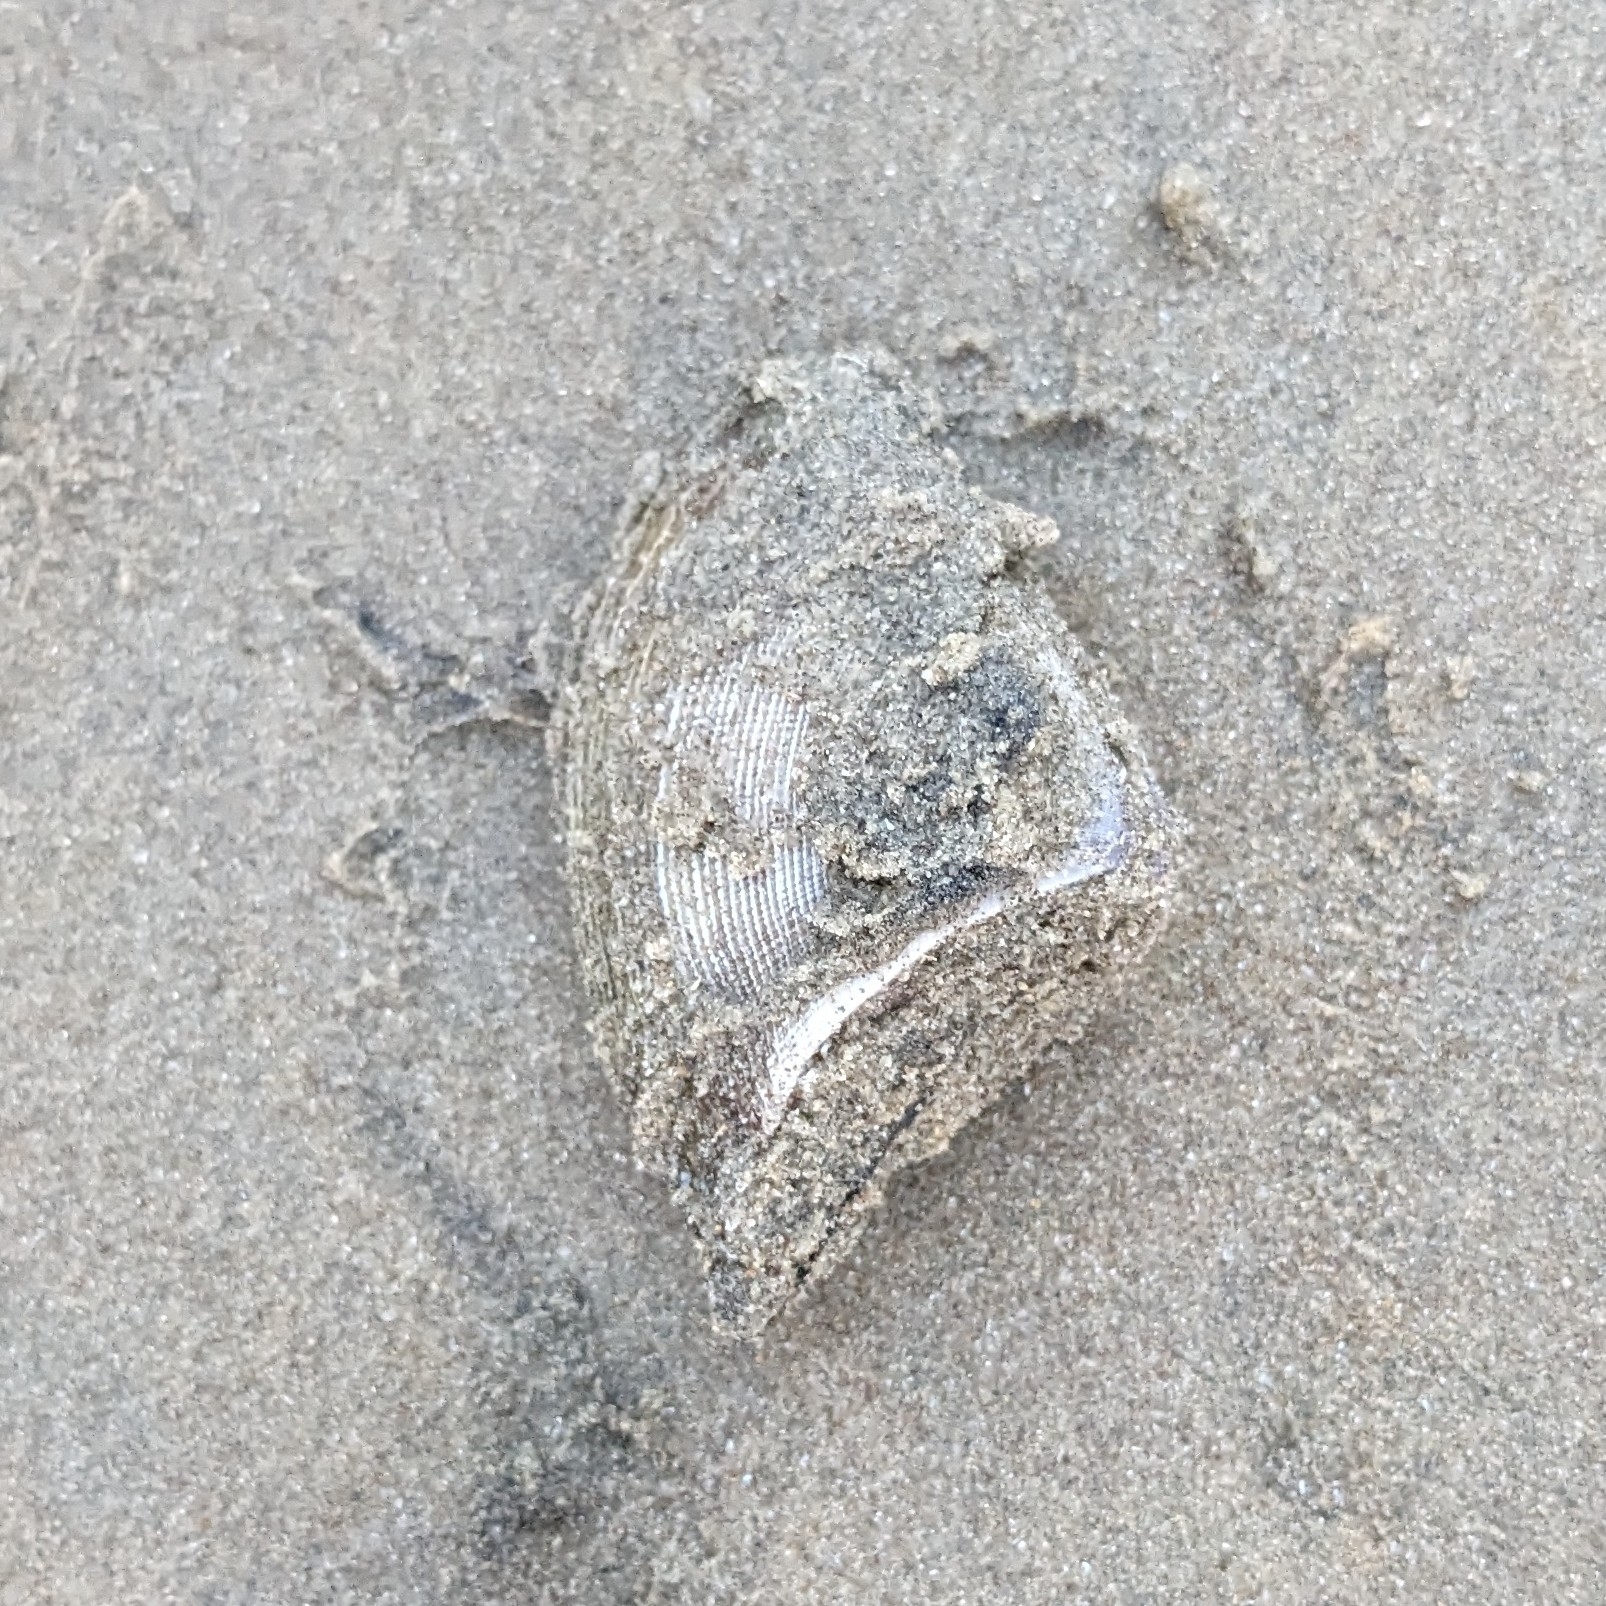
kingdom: Animalia
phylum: Mollusca
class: Bivalvia
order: Cardiida
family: Donacidae
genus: Hecuba
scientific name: Hecuba scortum
